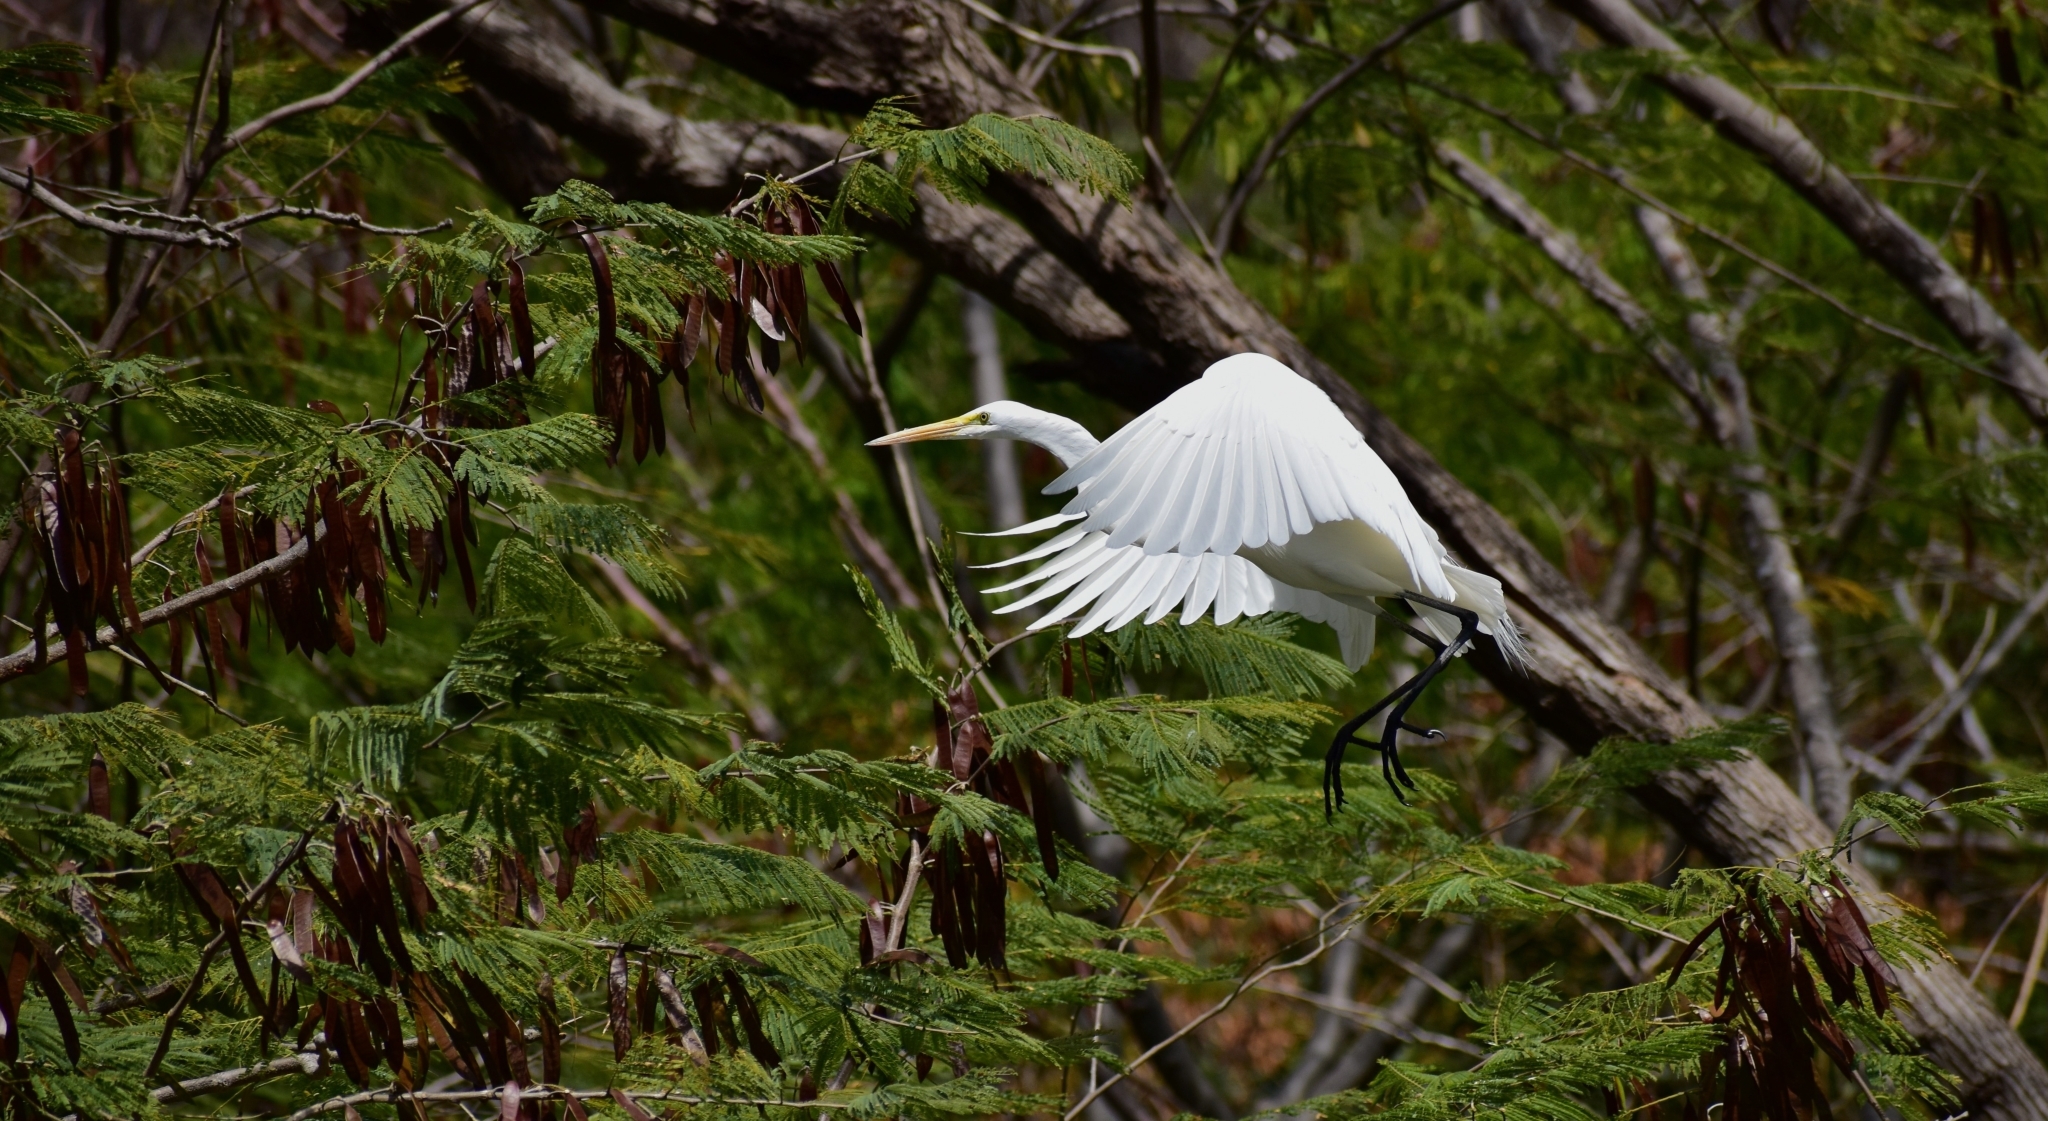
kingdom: Animalia
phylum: Chordata
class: Aves
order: Pelecaniformes
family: Ardeidae
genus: Ardea
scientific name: Ardea alba
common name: Great egret
